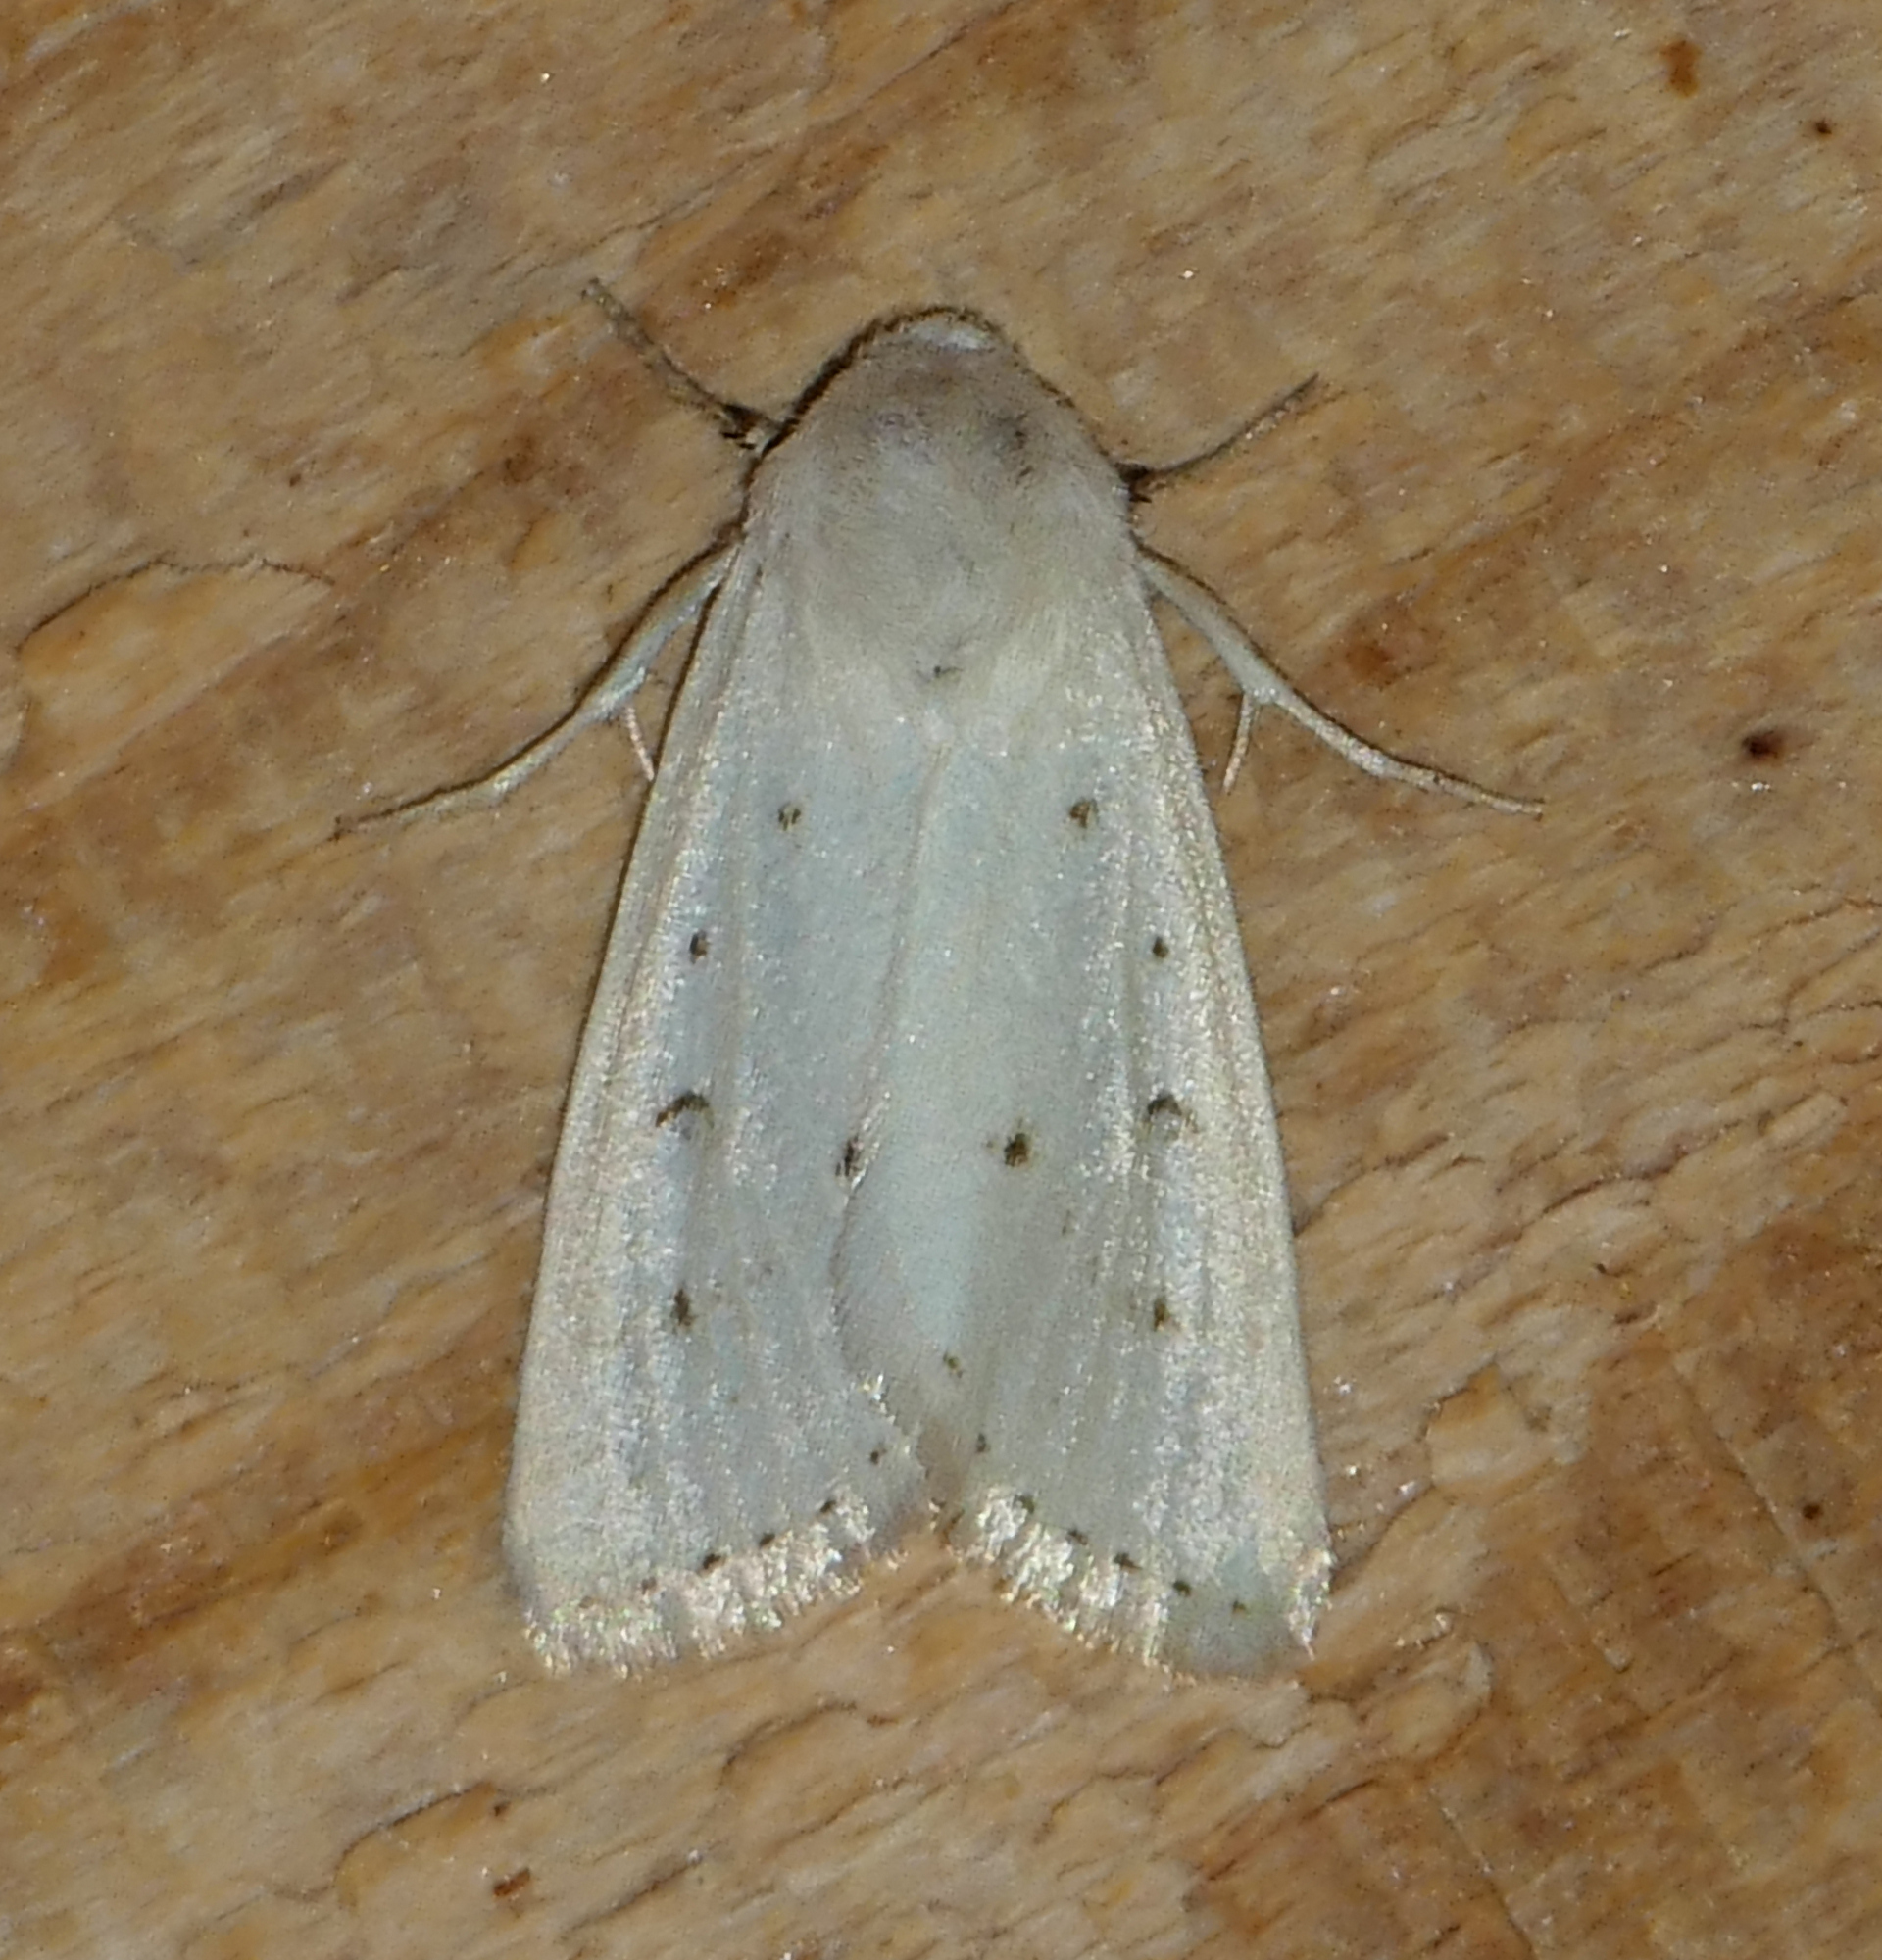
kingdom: Animalia
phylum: Arthropoda
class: Insecta
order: Lepidoptera
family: Noctuidae
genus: Schinia
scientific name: Schinia luxa
